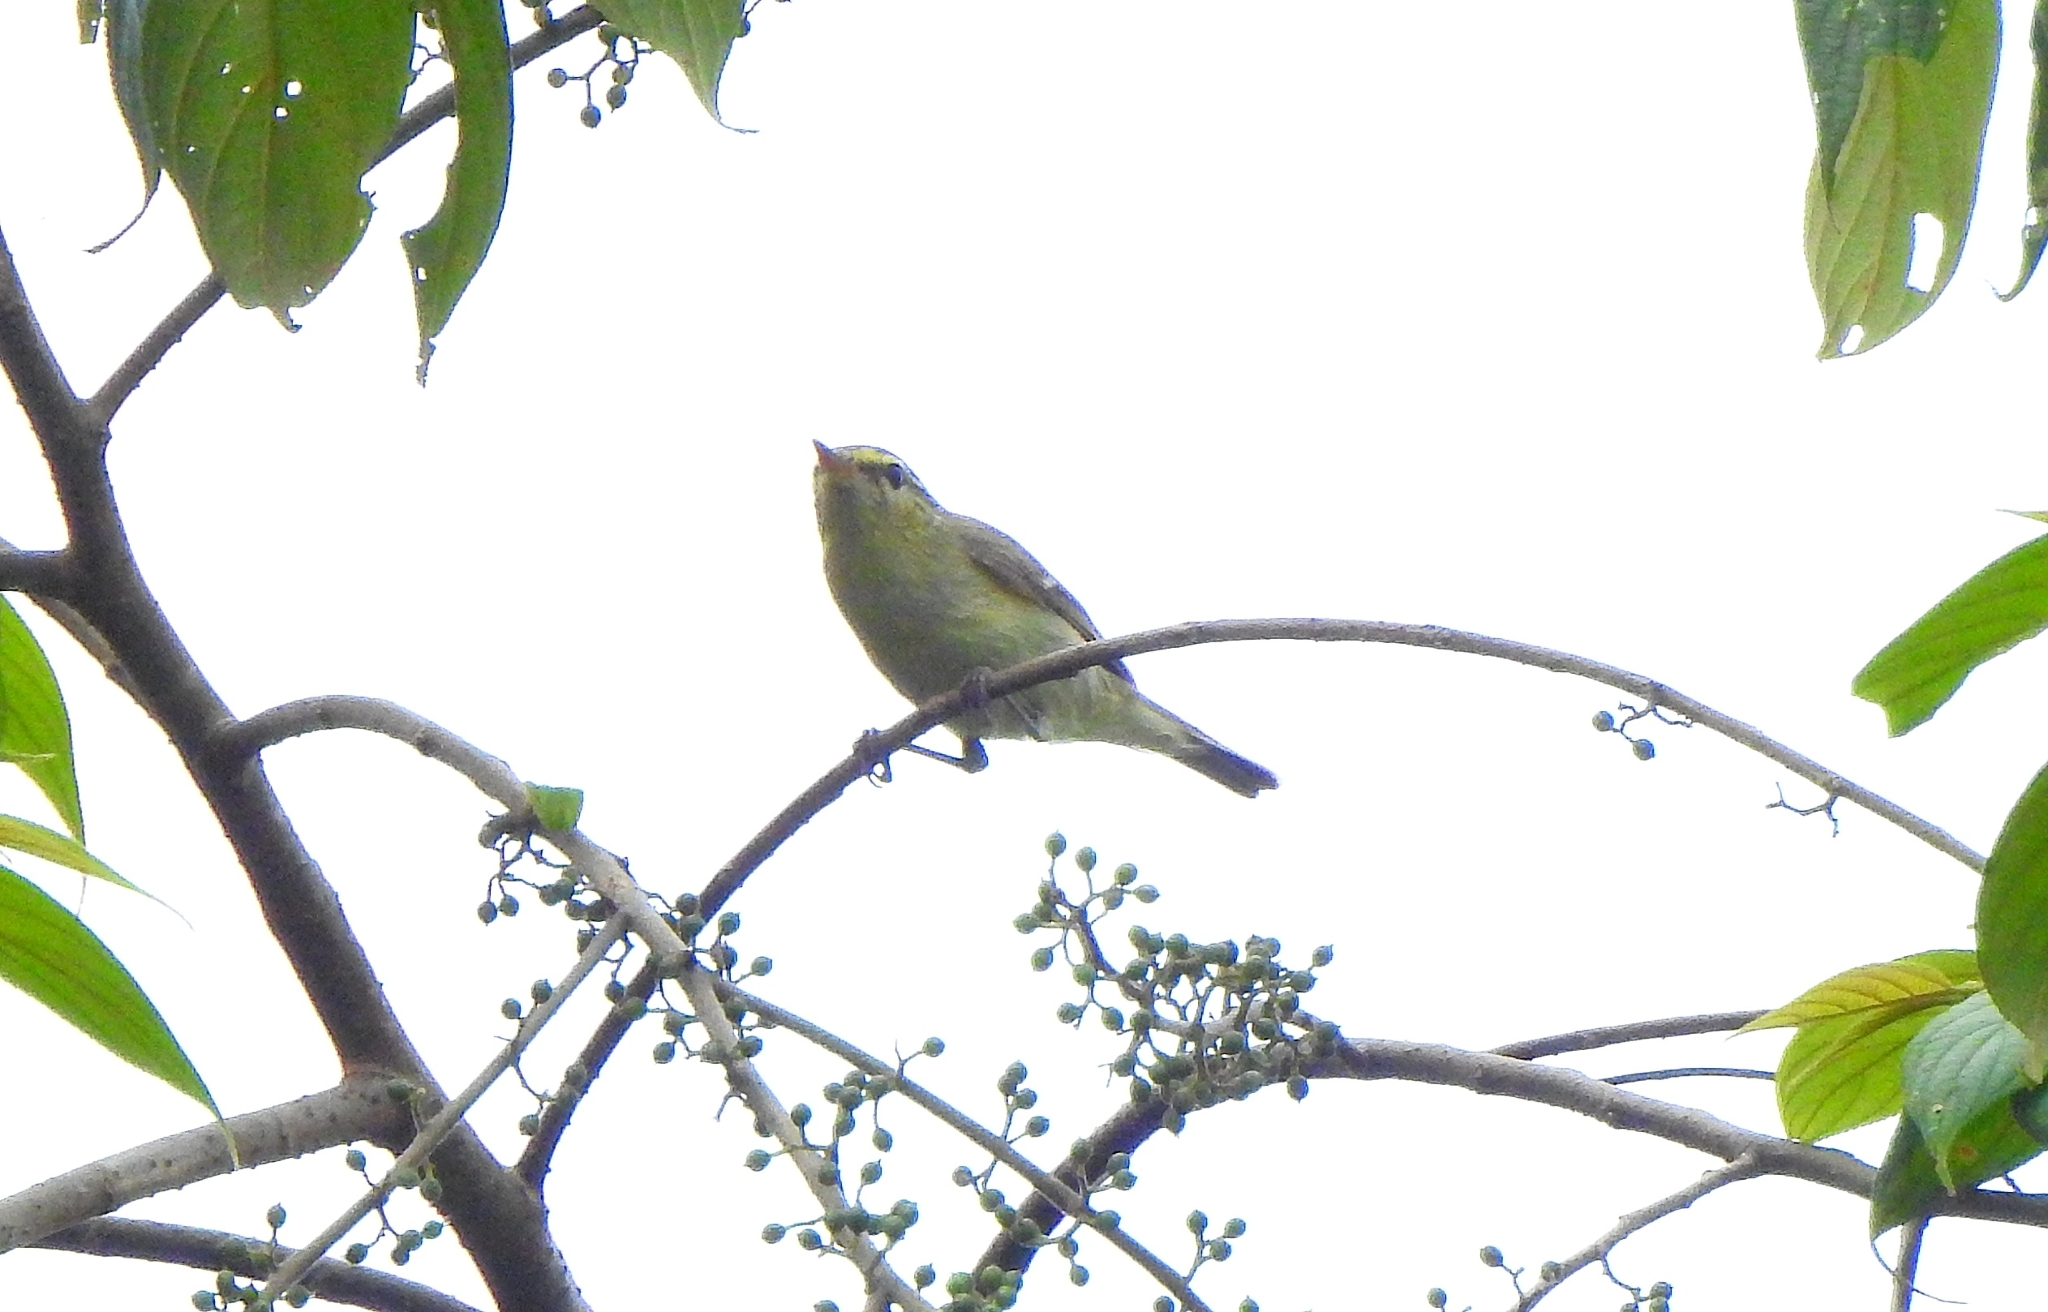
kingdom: Animalia
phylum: Chordata
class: Aves
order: Passeriformes
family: Phylloscopidae
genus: Phylloscopus
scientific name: Phylloscopus trochiloides
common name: Greenish warbler
